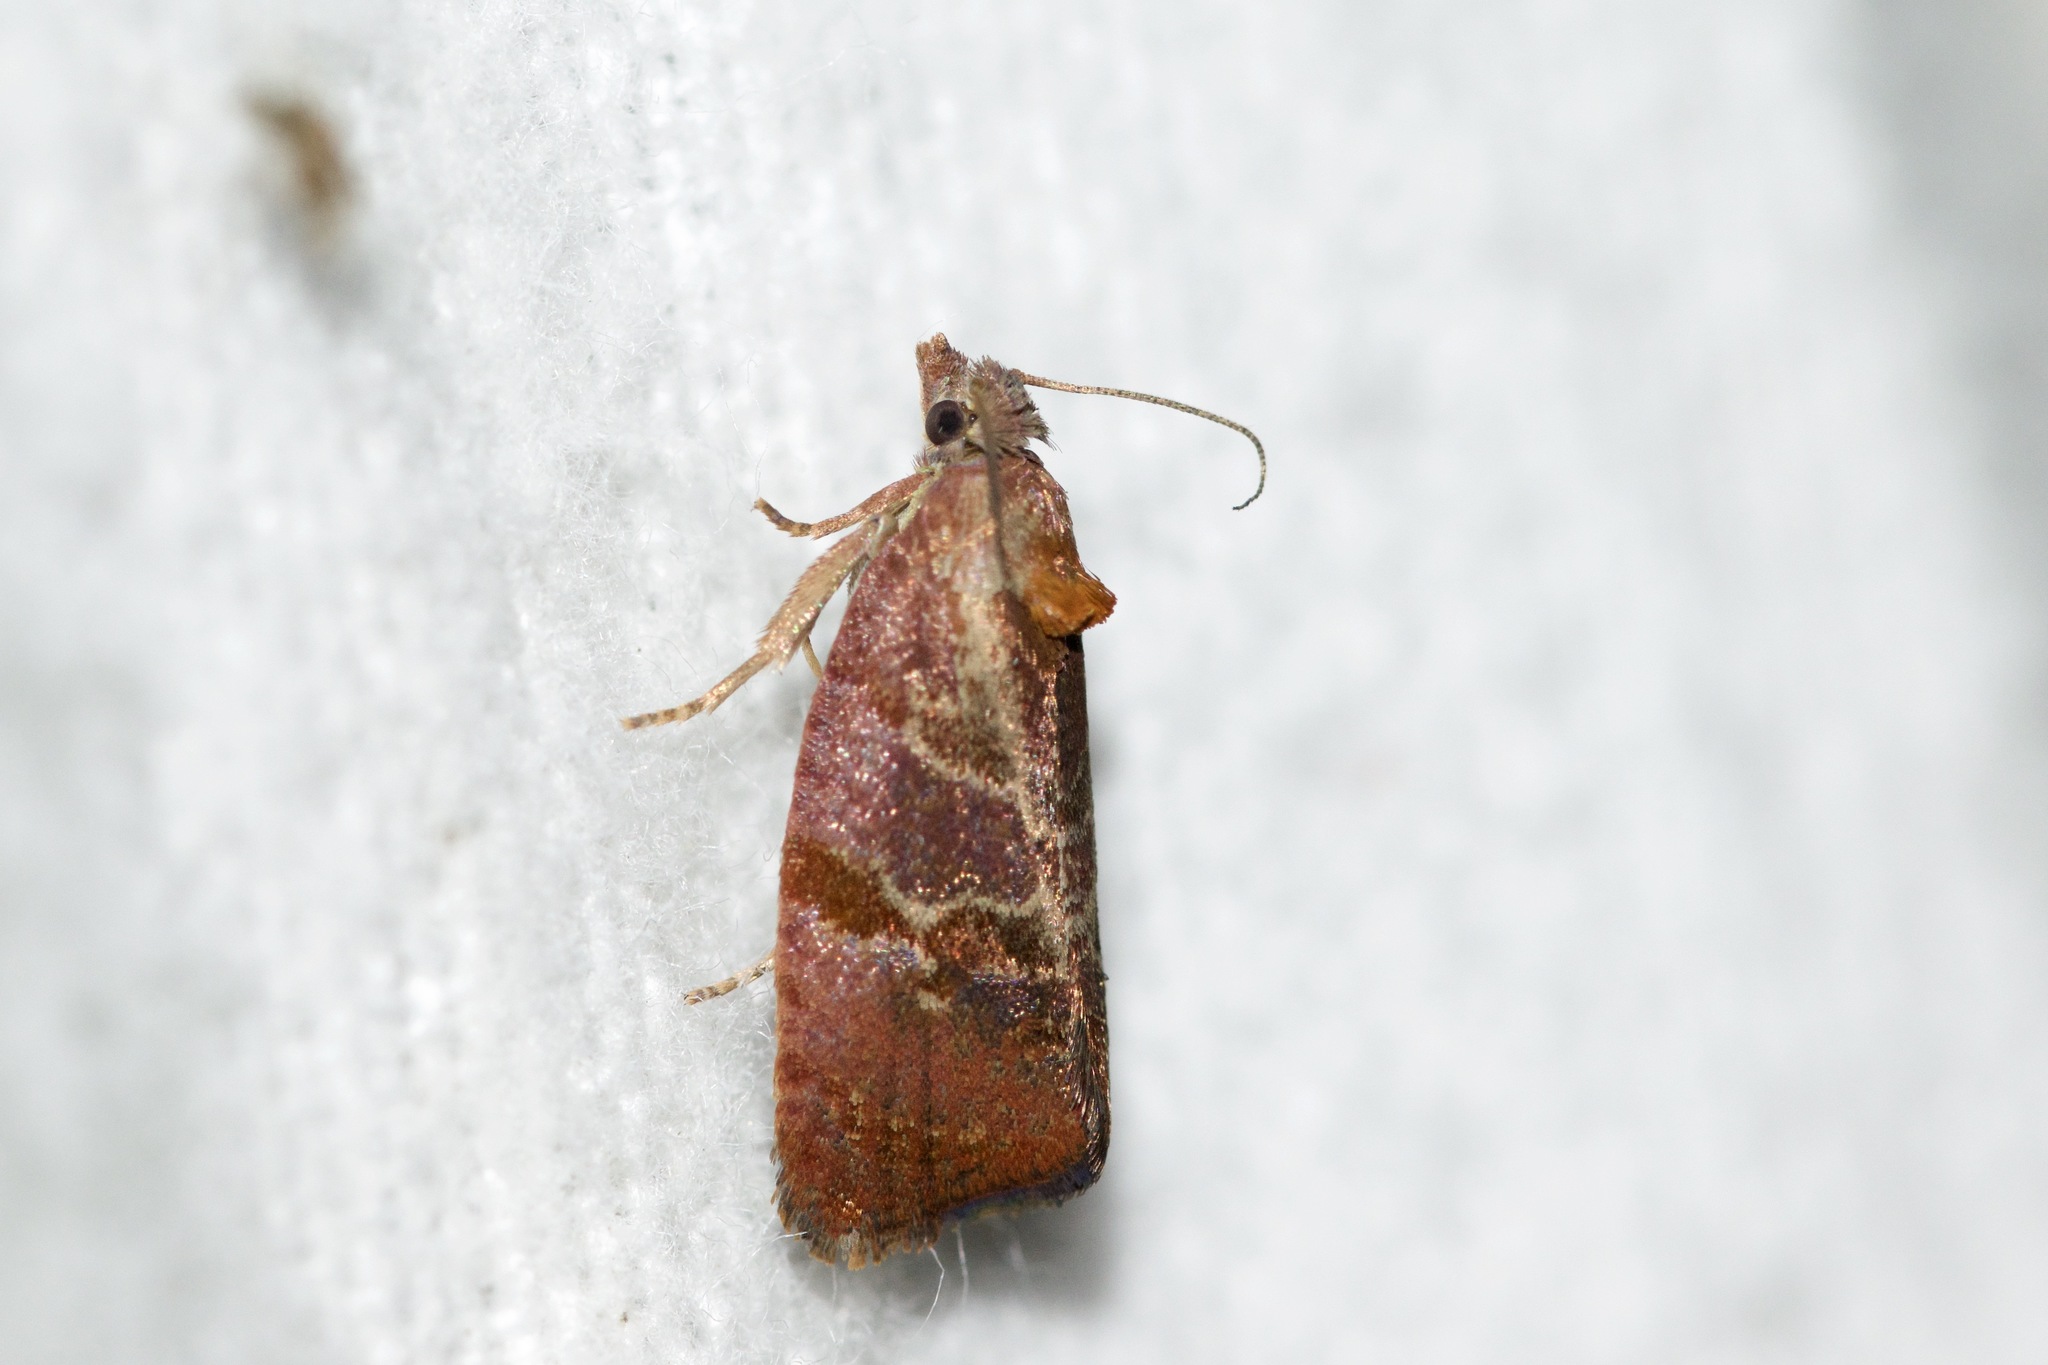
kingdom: Animalia
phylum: Arthropoda
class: Insecta
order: Lepidoptera
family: Tortricidae
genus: Evora
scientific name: Evora hemidesma
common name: Spirea leaftier moth
